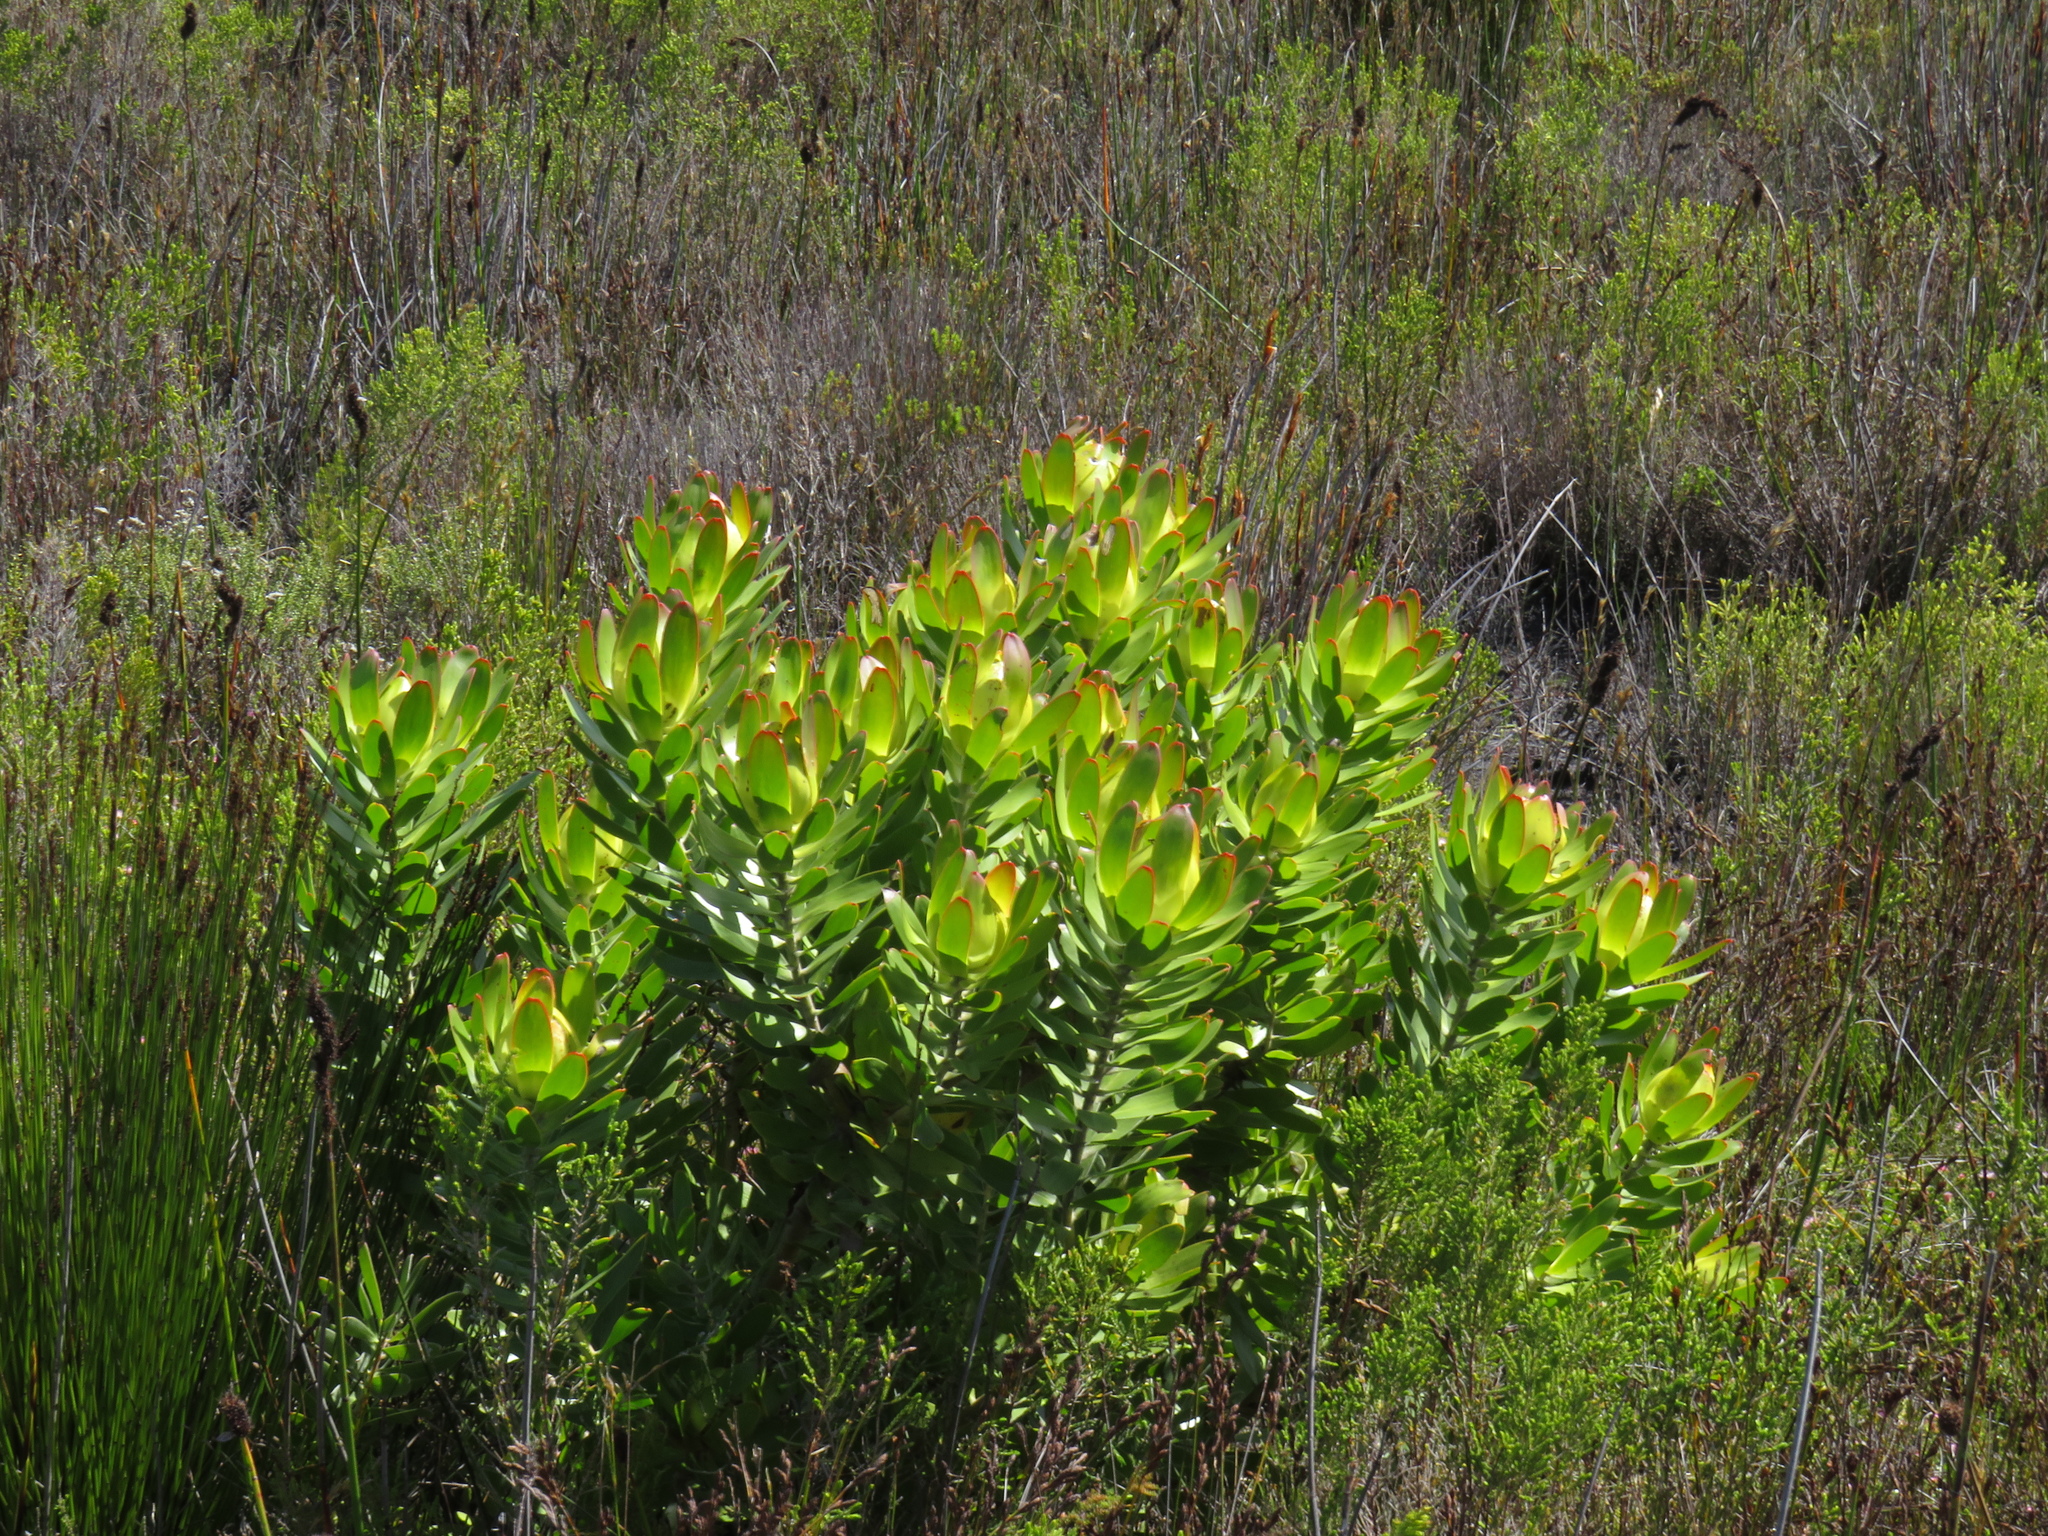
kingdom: Plantae
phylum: Tracheophyta
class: Magnoliopsida
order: Proteales
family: Proteaceae
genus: Leucadendron
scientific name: Leucadendron laureolum
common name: Golden sunshinebush
